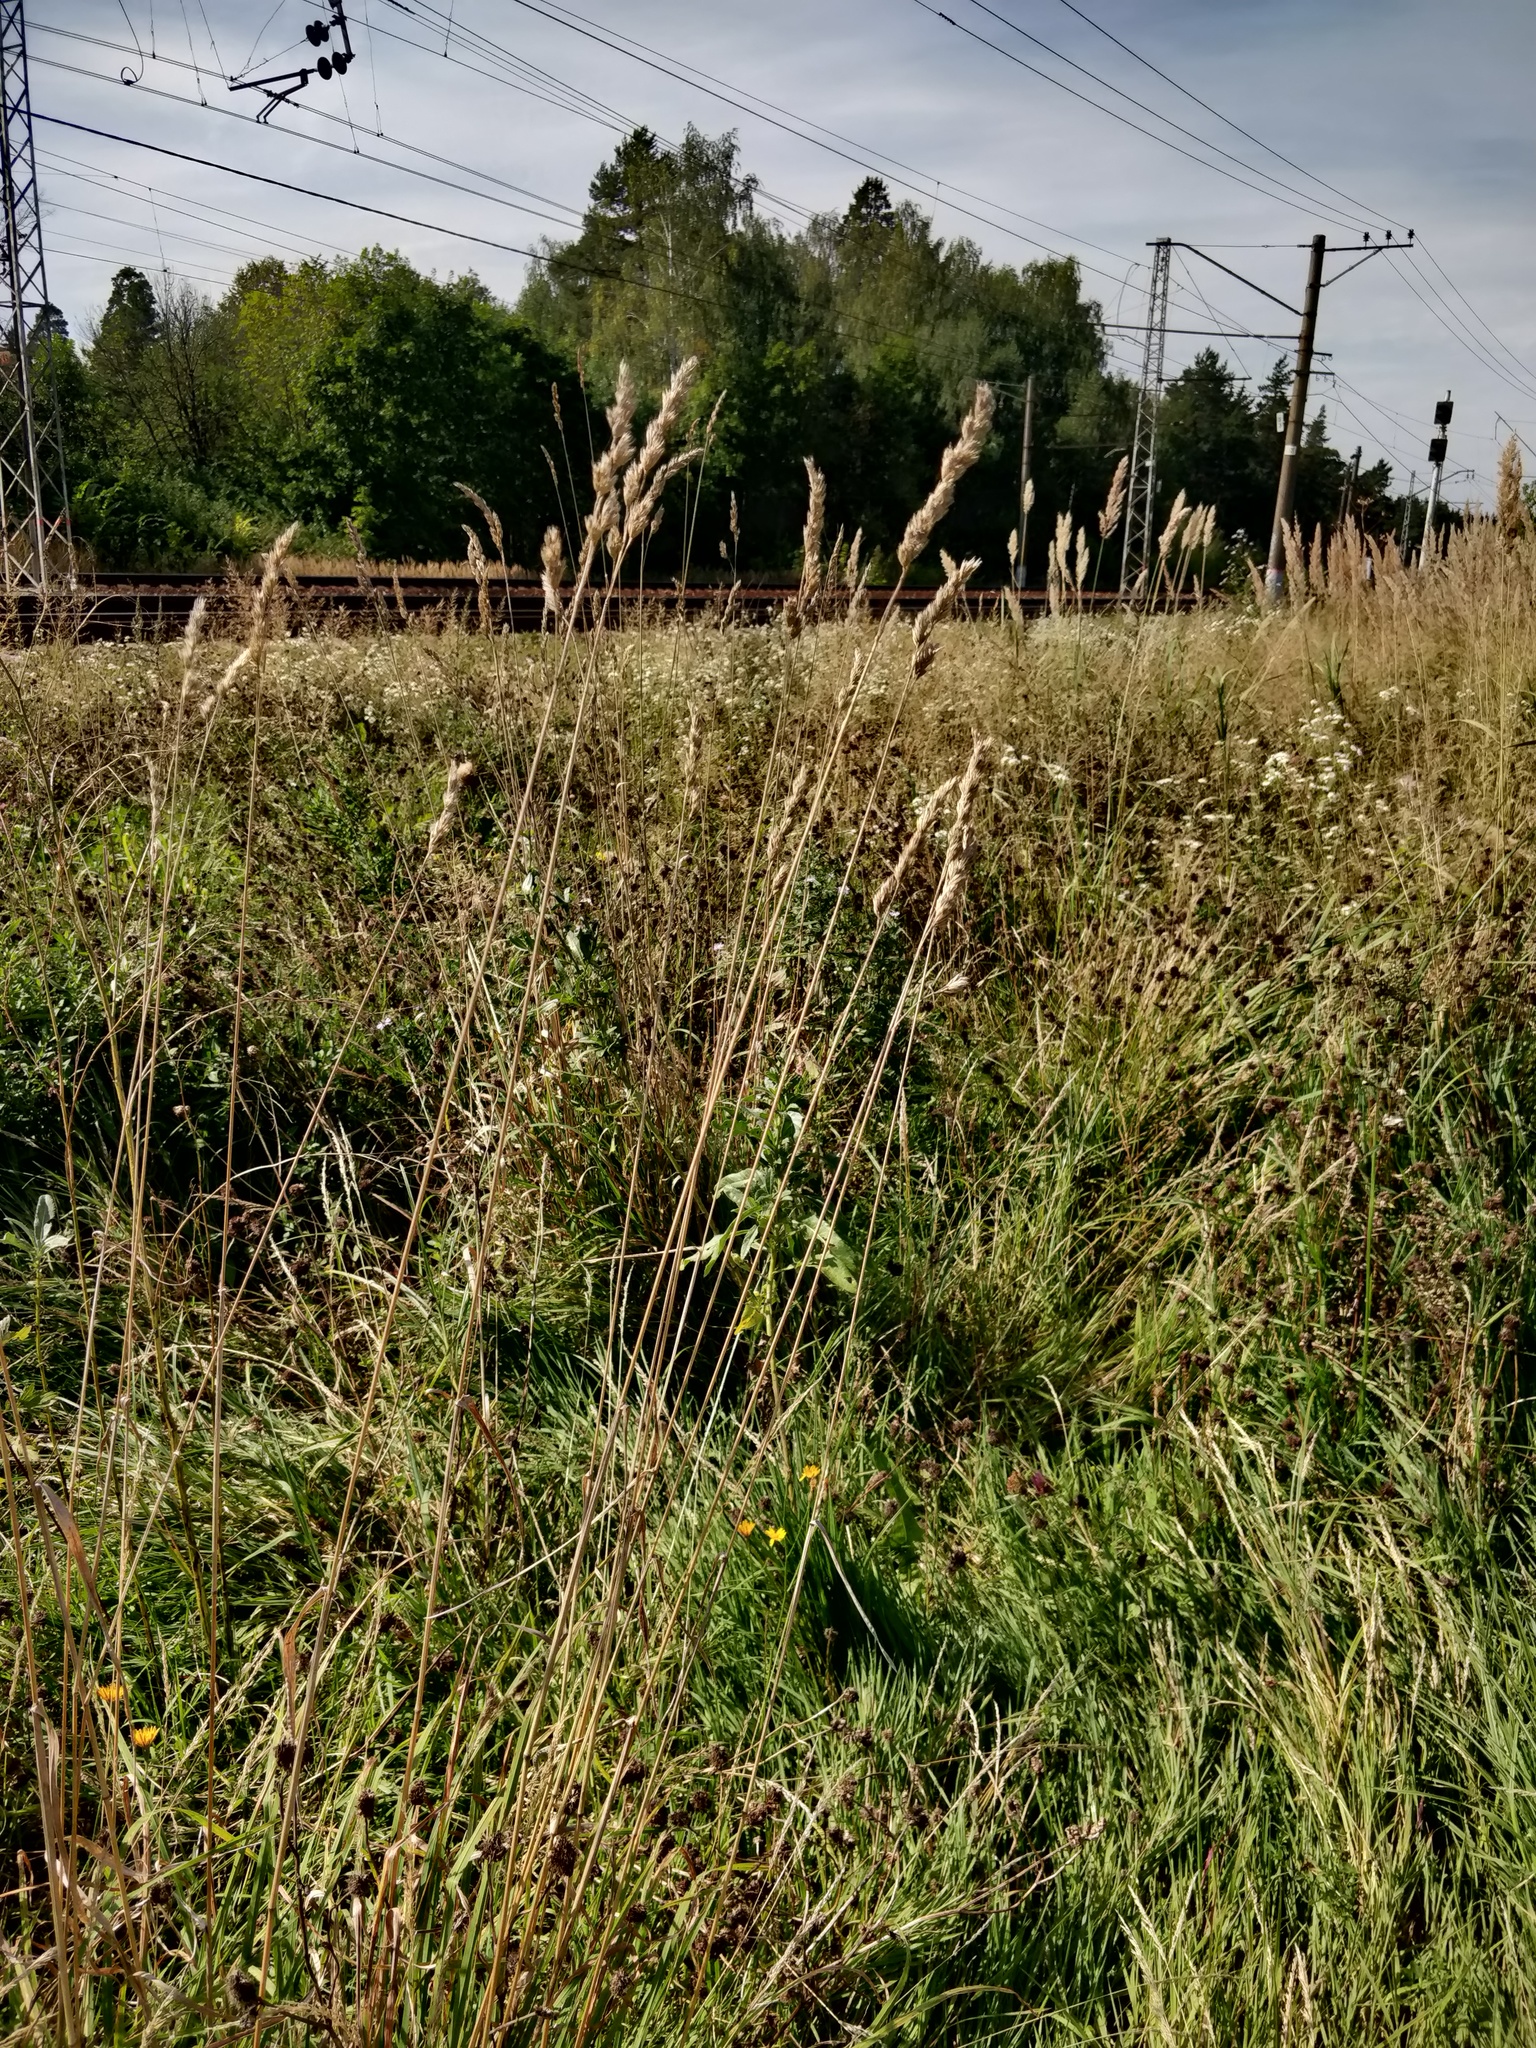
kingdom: Plantae
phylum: Tracheophyta
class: Liliopsida
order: Poales
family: Poaceae
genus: Dactylis
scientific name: Dactylis glomerata
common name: Orchardgrass
